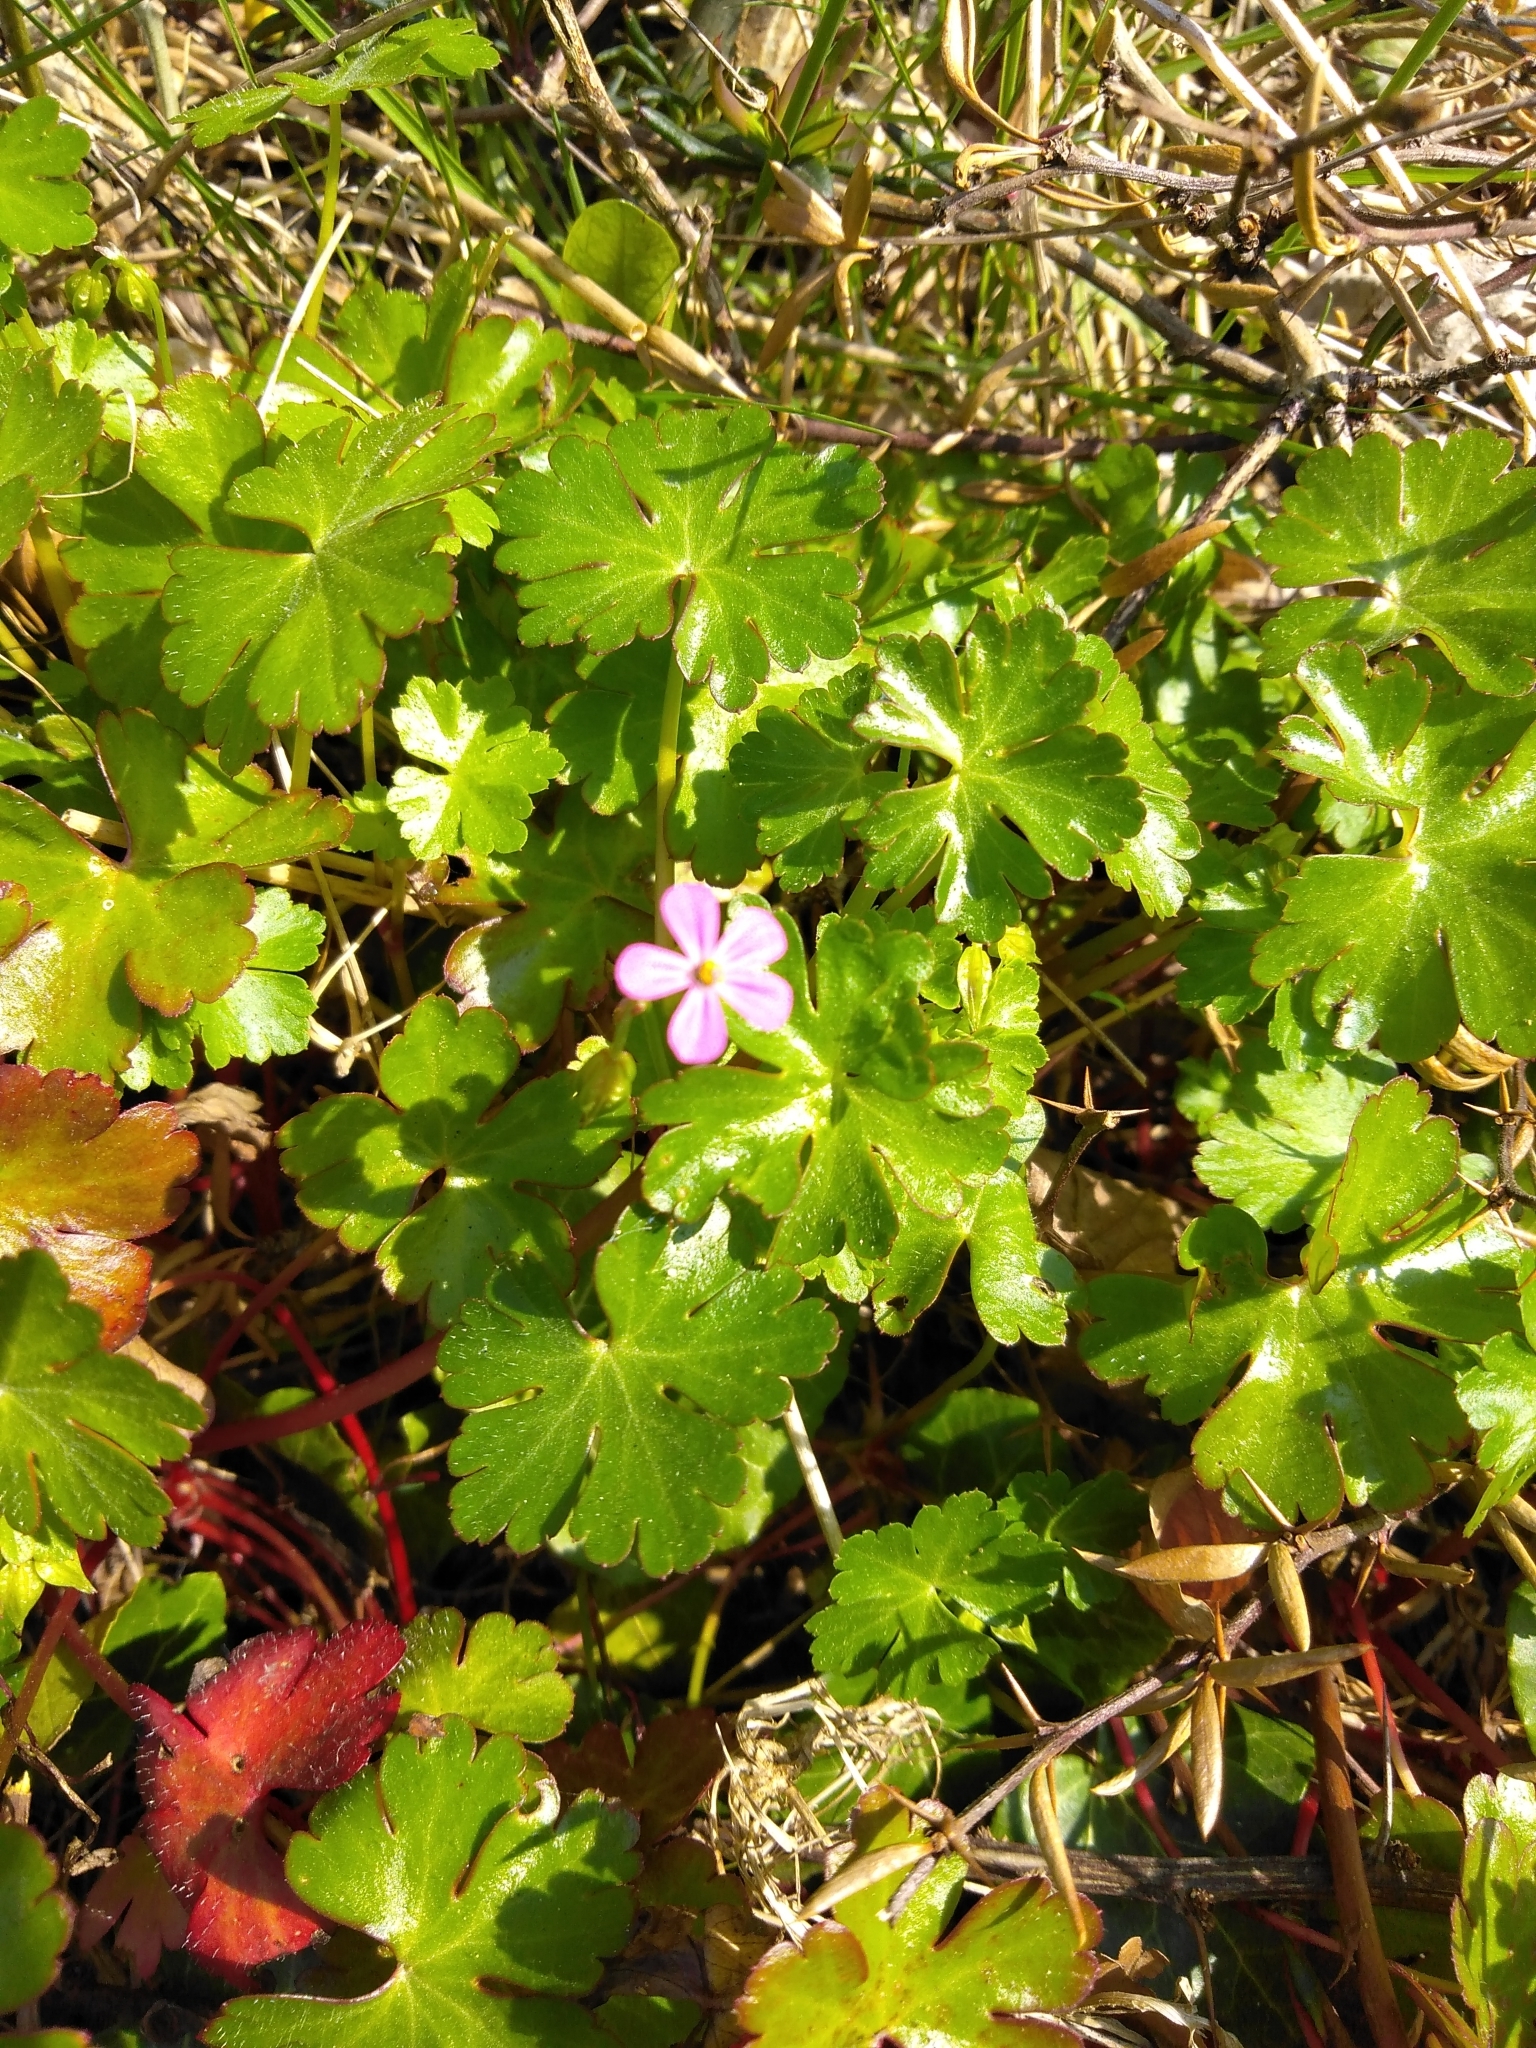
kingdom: Plantae
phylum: Tracheophyta
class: Magnoliopsida
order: Geraniales
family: Geraniaceae
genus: Geranium
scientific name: Geranium lucidum
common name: Shining crane's-bill
